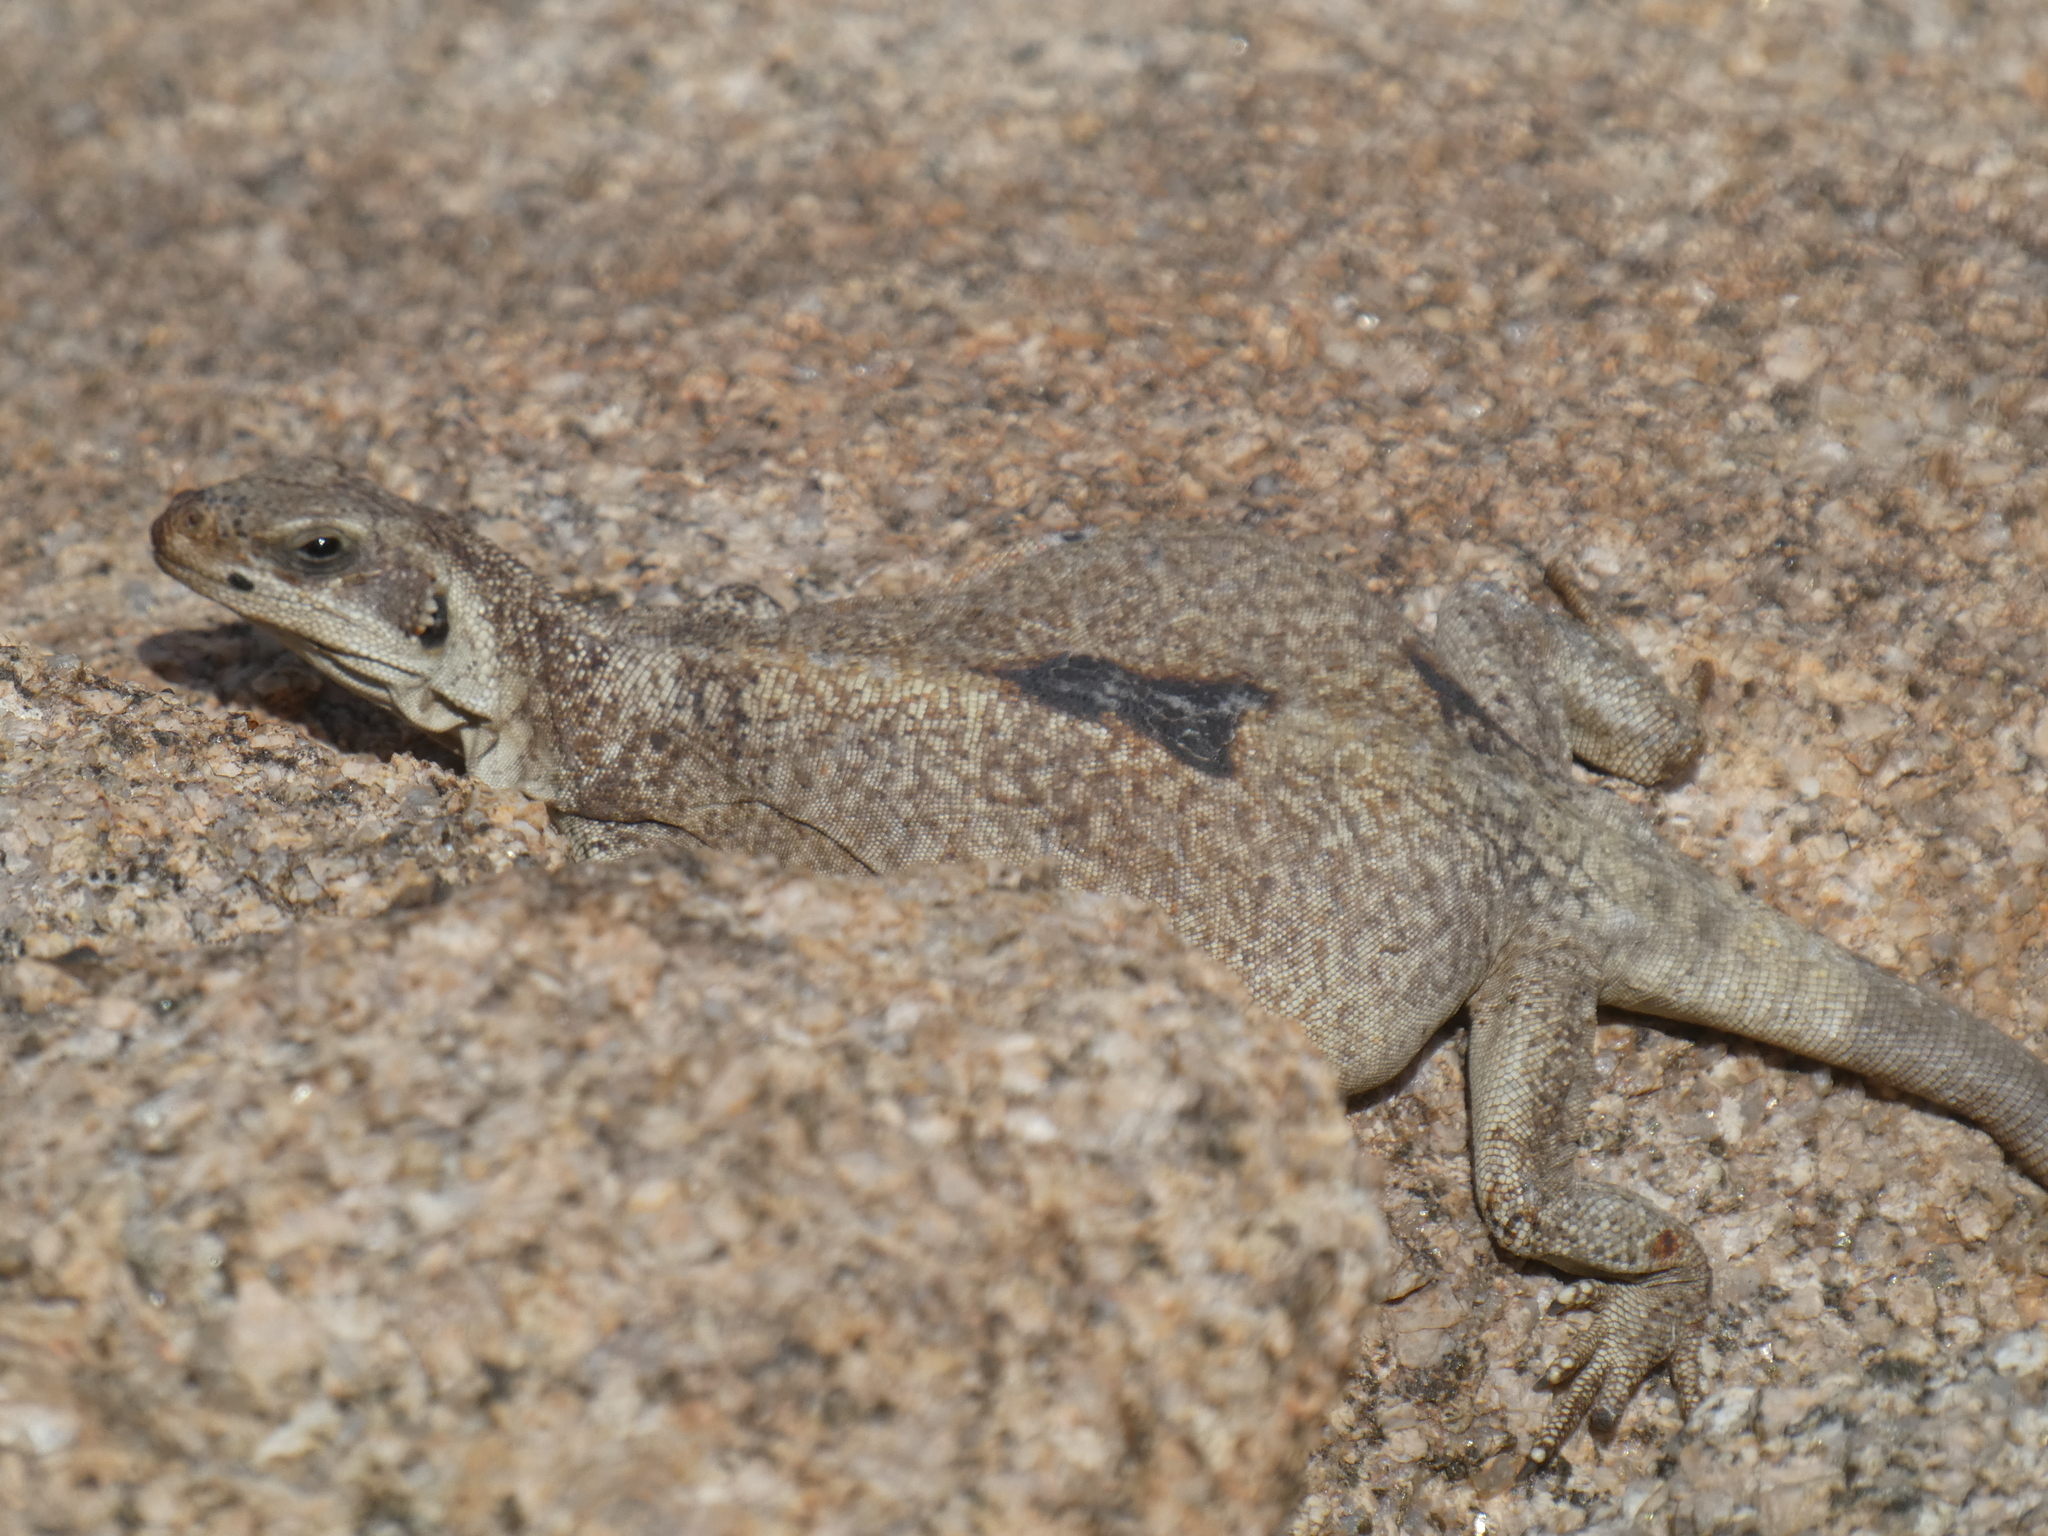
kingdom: Animalia
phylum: Chordata
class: Squamata
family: Iguanidae
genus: Sauromalus
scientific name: Sauromalus ater
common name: Northern chuckwalla
